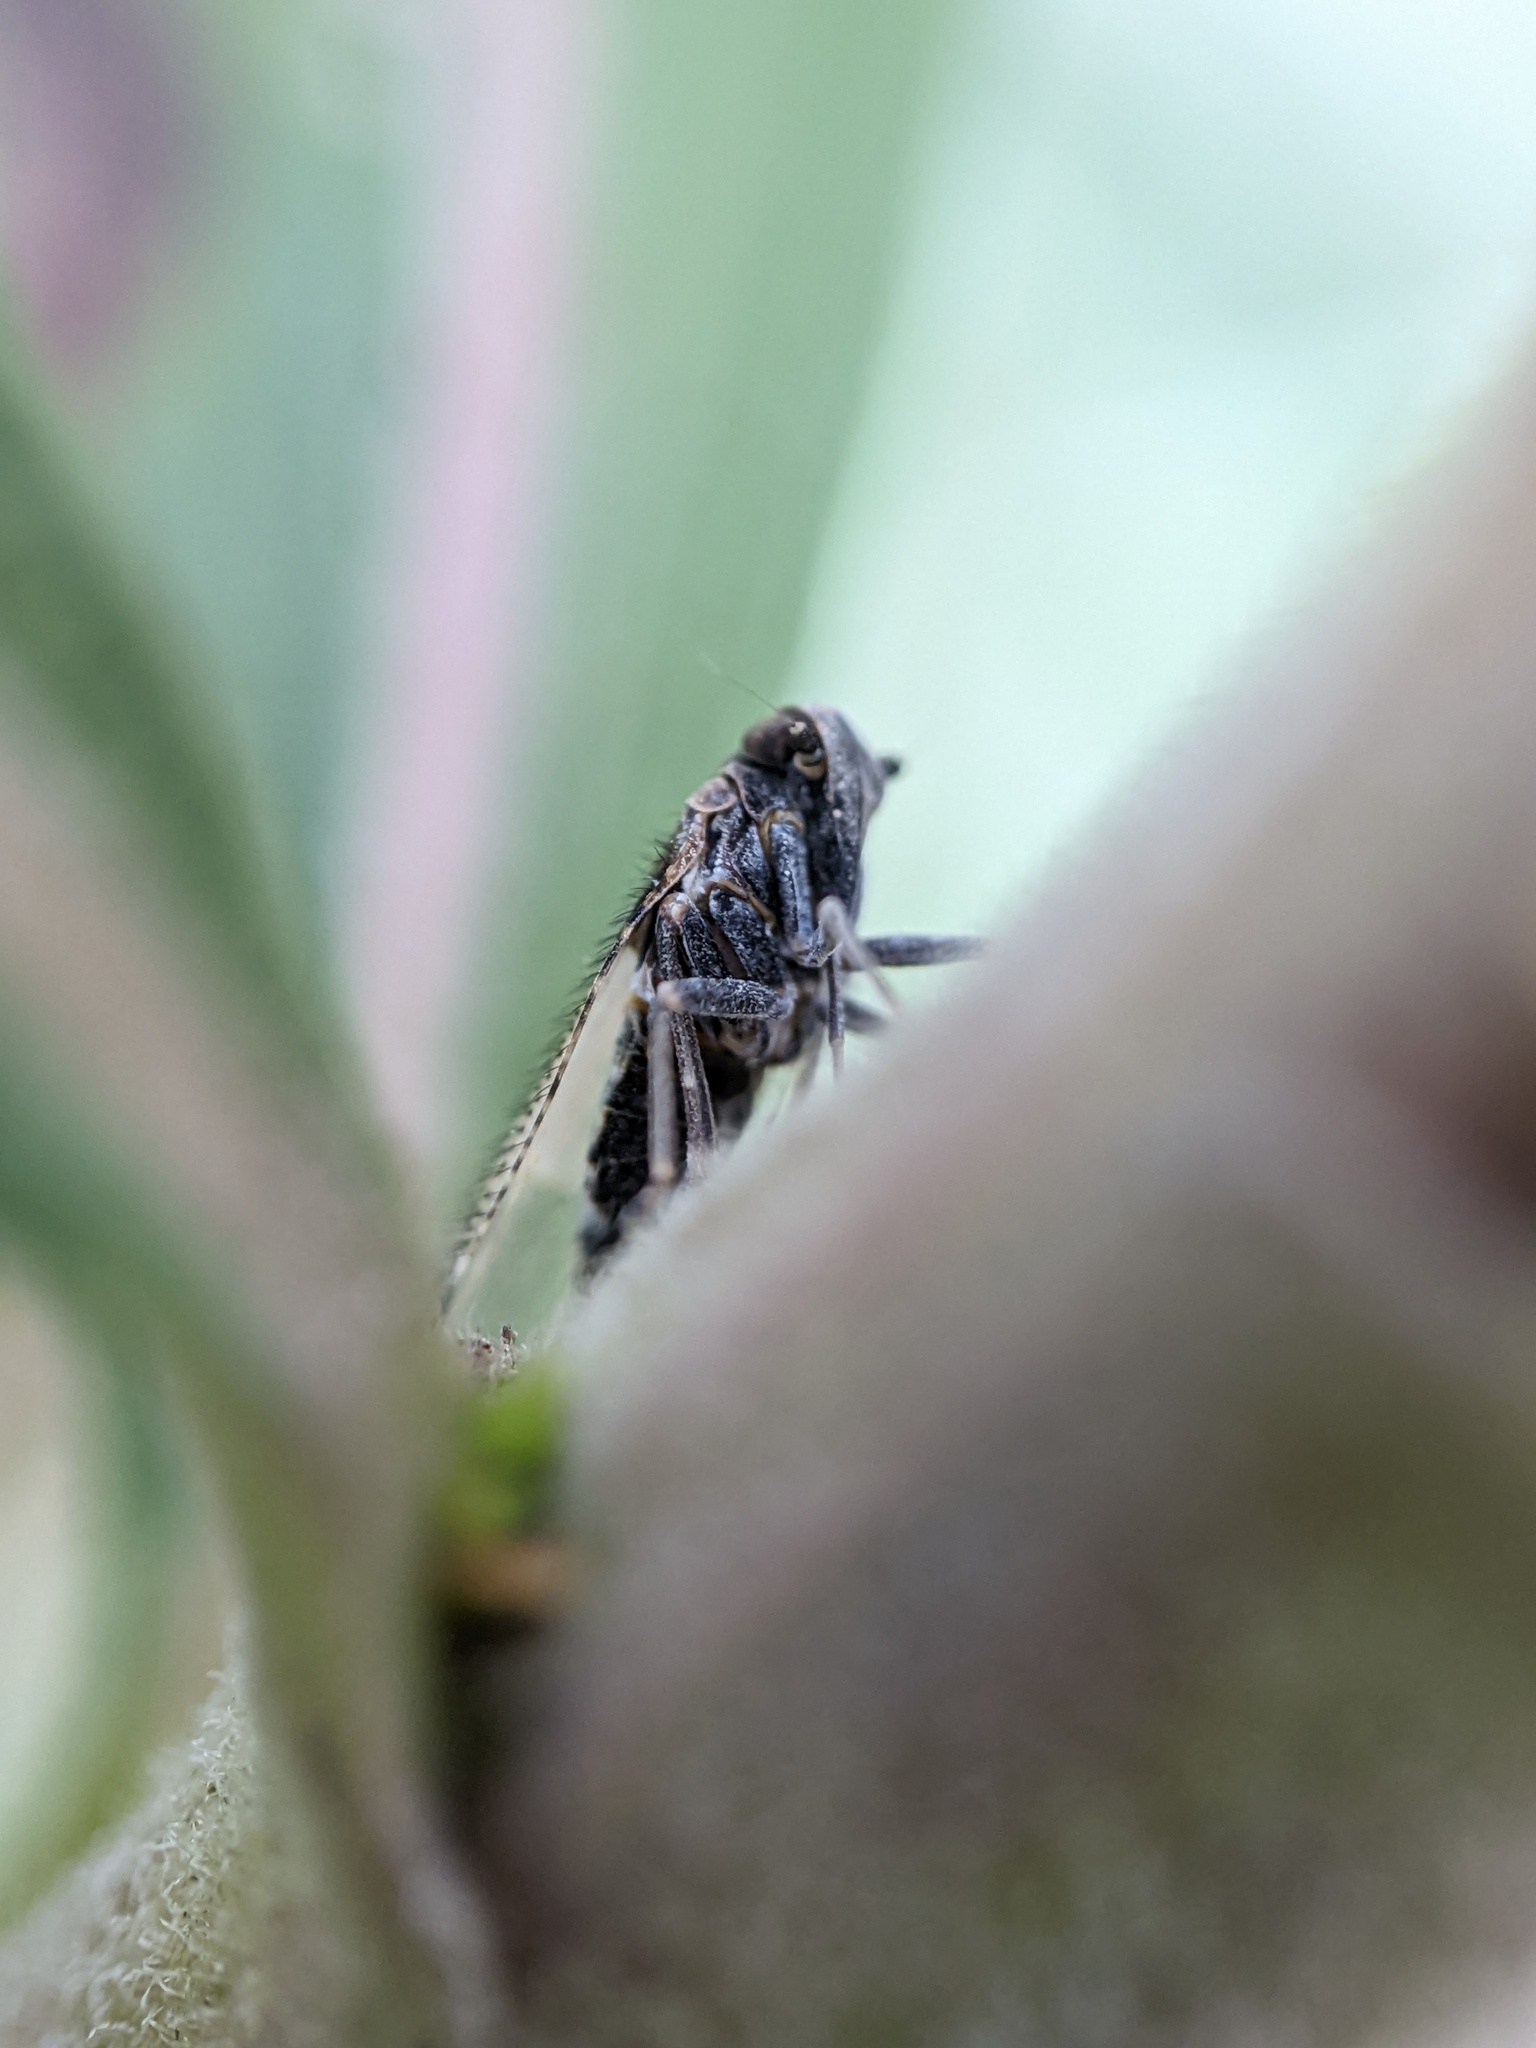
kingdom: Animalia
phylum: Arthropoda
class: Insecta
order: Hemiptera
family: Cixiidae
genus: Cixius
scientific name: Cixius stigmatus
